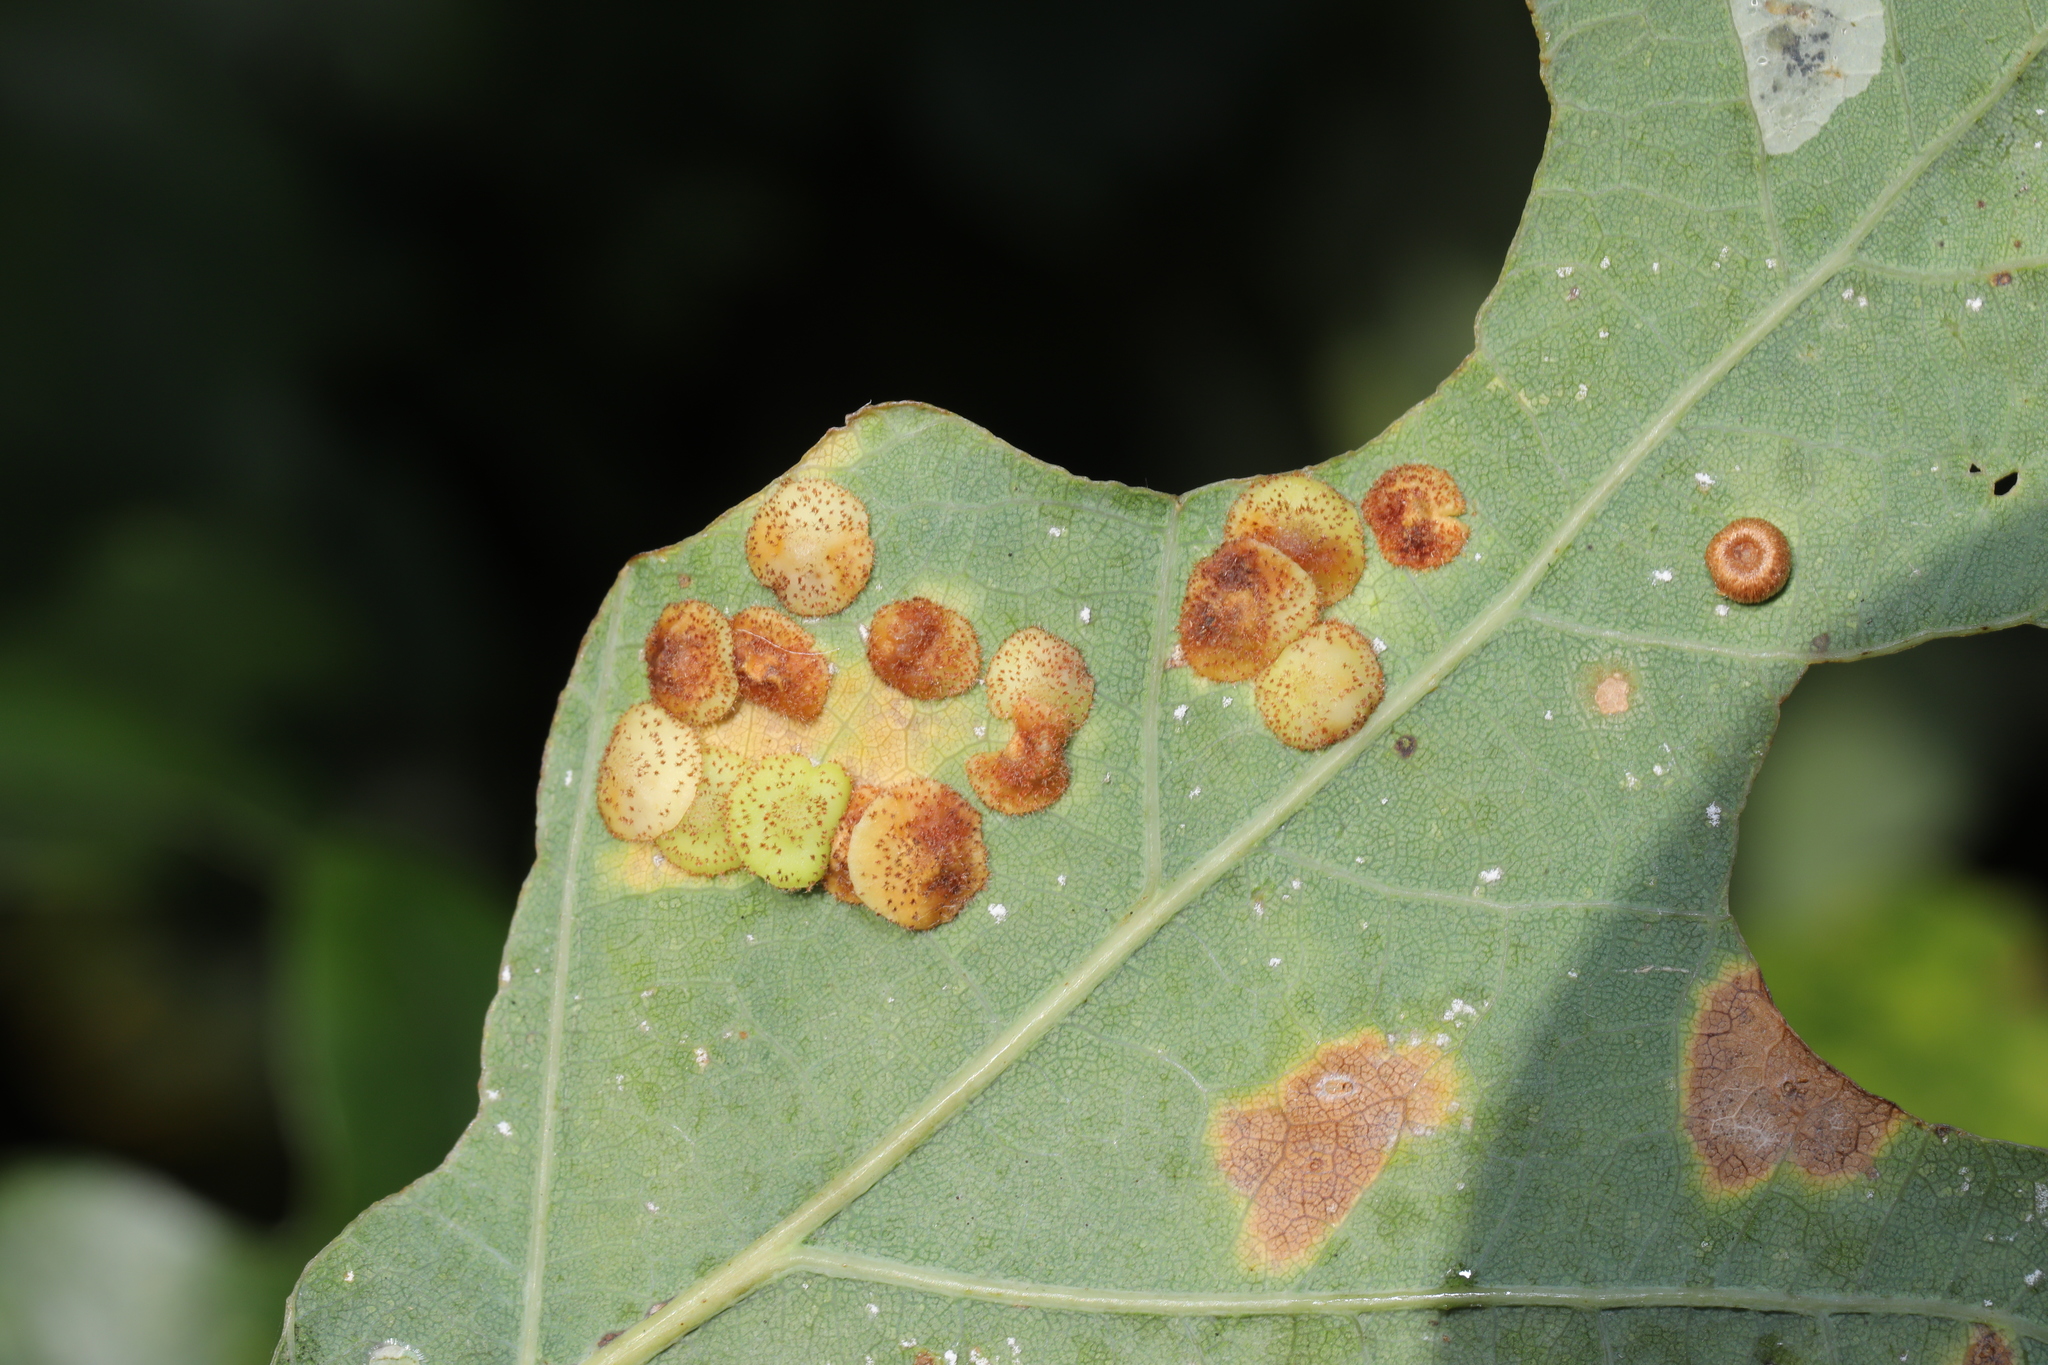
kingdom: Animalia
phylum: Arthropoda
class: Insecta
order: Hymenoptera
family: Cynipidae
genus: Neuroterus
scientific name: Neuroterus quercusbaccarum
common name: Common spangle gall
